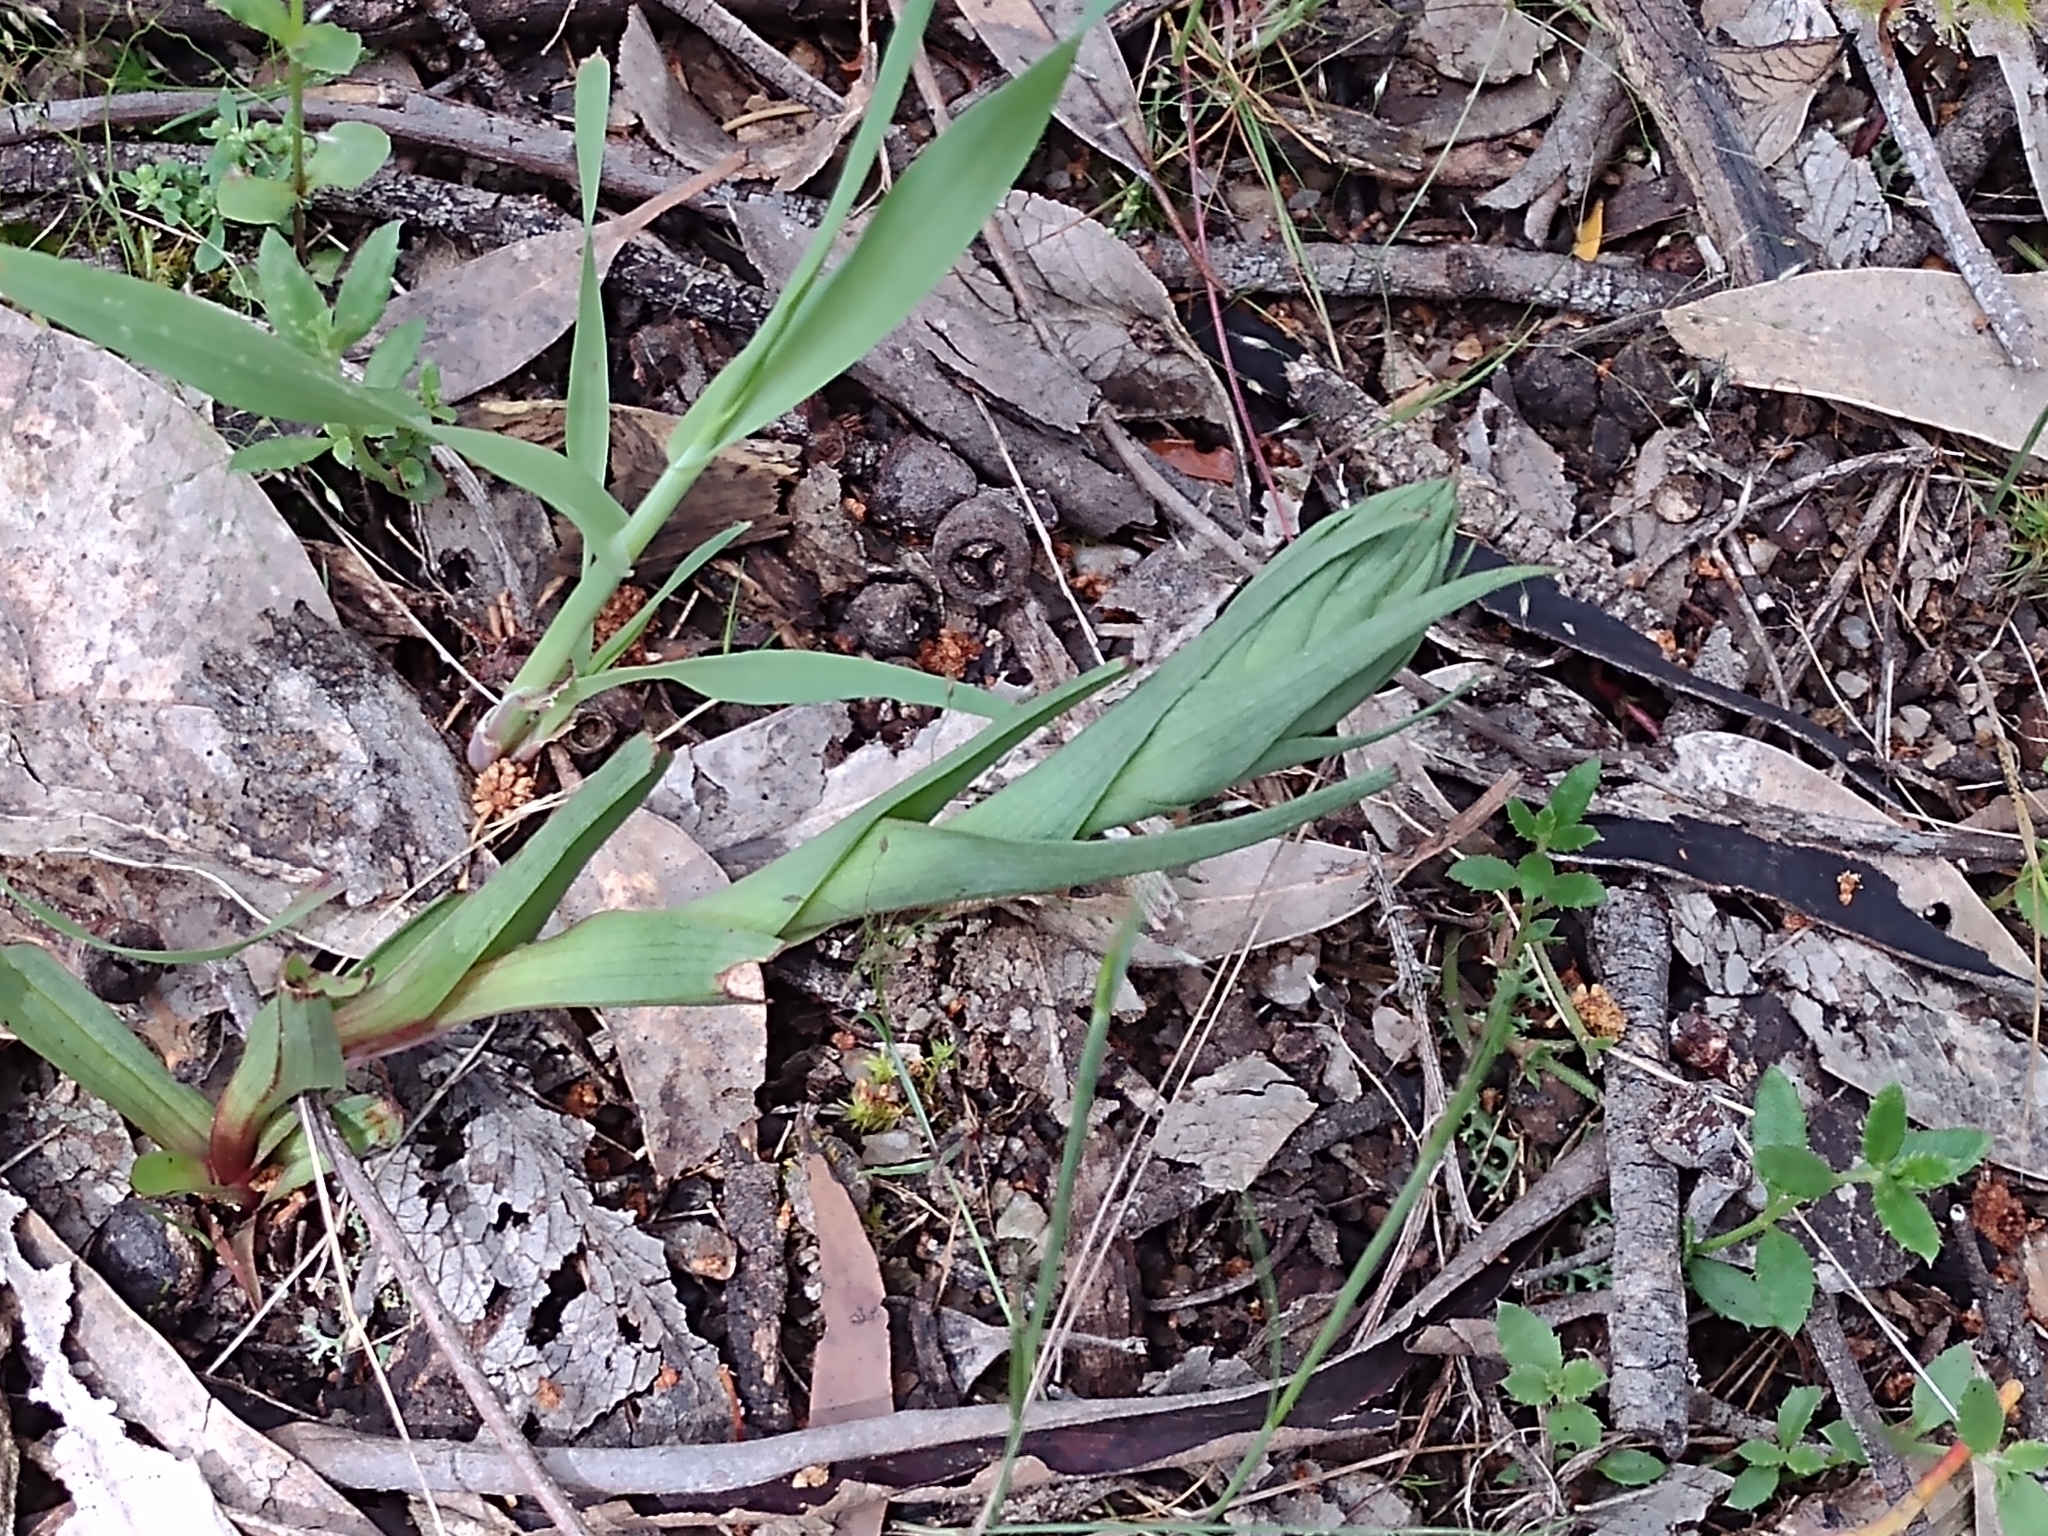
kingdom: Plantae
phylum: Tracheophyta
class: Liliopsida
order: Asparagales
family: Orchidaceae
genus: Disa
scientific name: Disa bracteata
